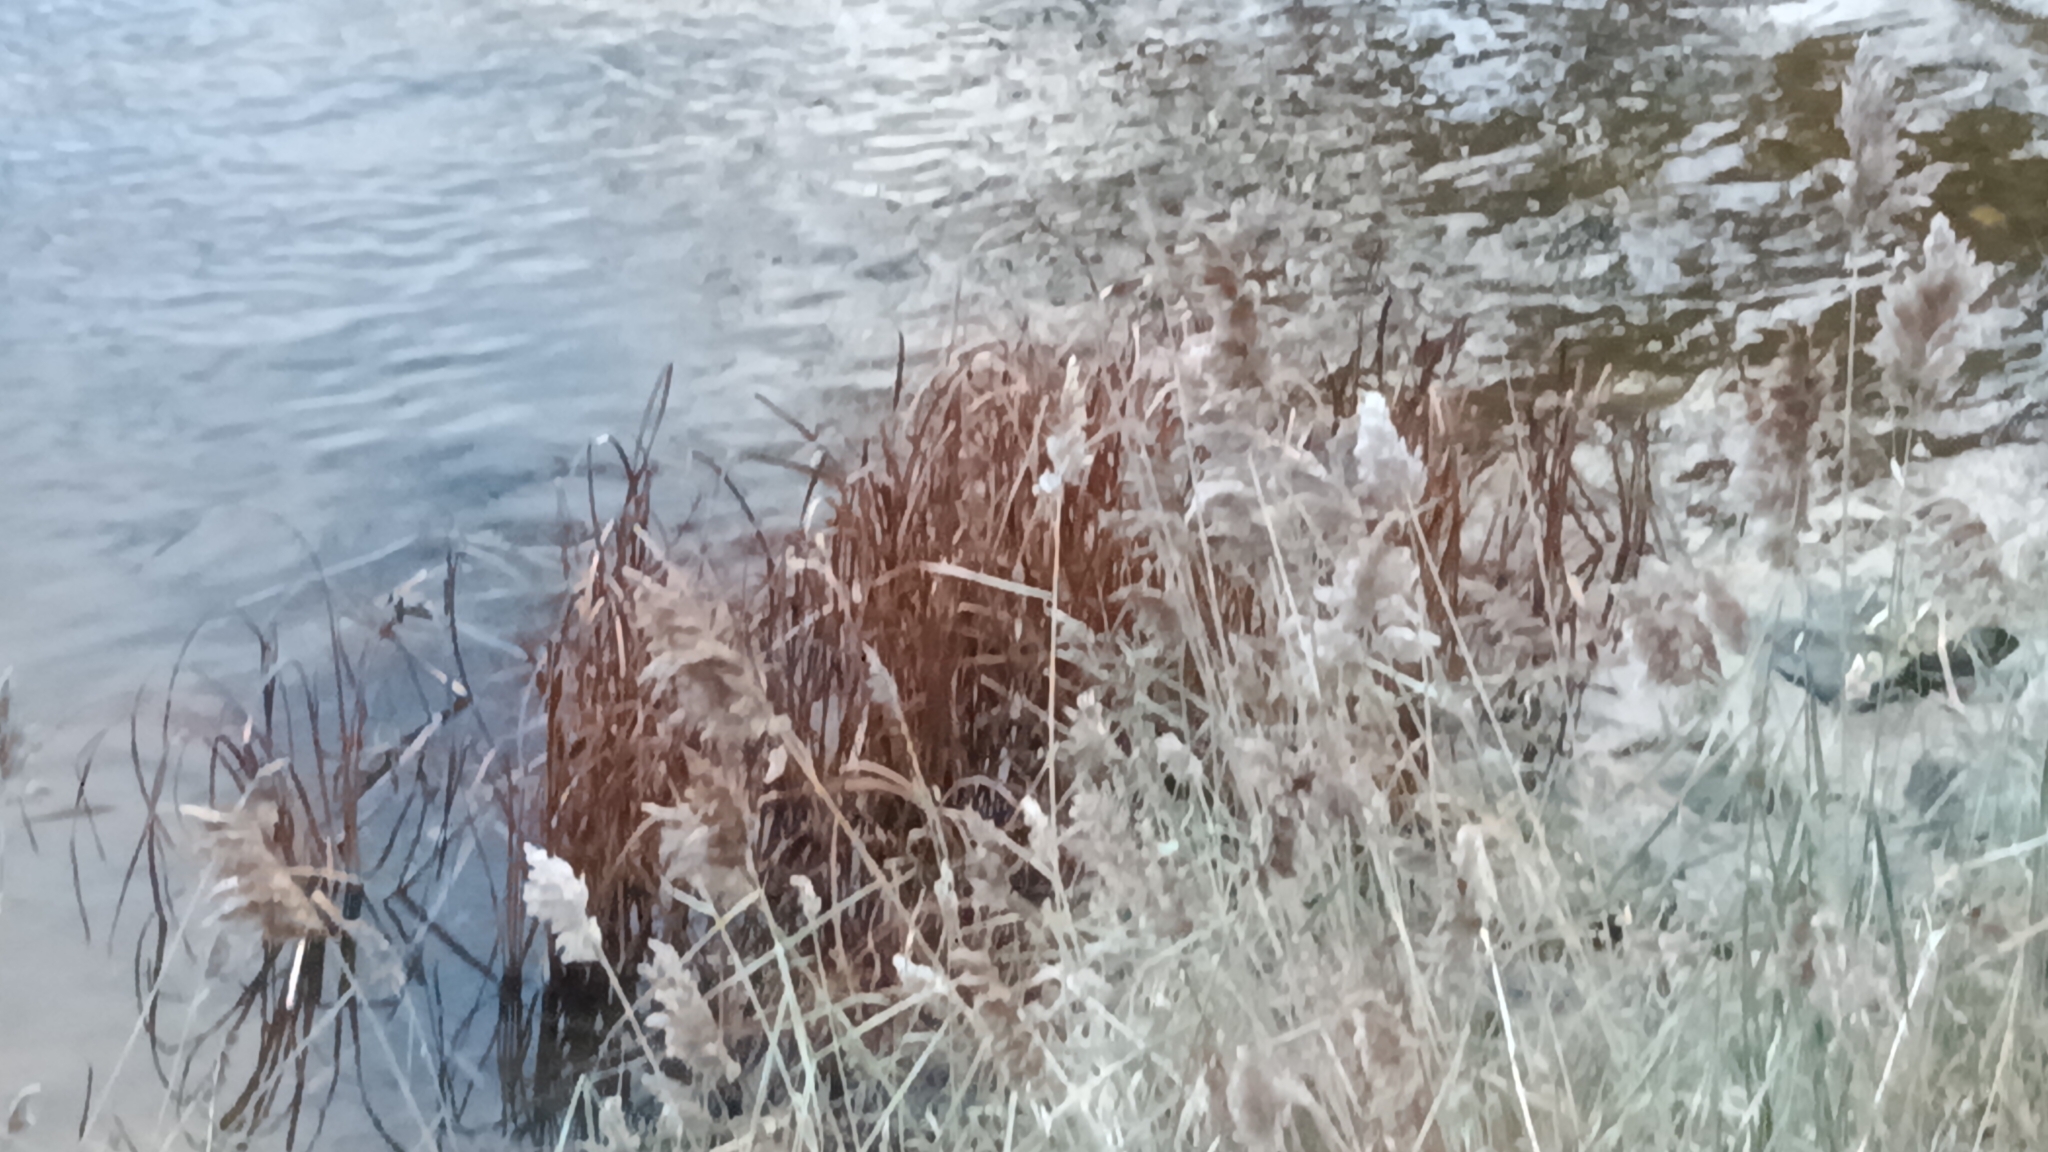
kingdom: Plantae
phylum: Tracheophyta
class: Liliopsida
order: Poales
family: Poaceae
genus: Phragmites
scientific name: Phragmites australis
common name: Common reed
